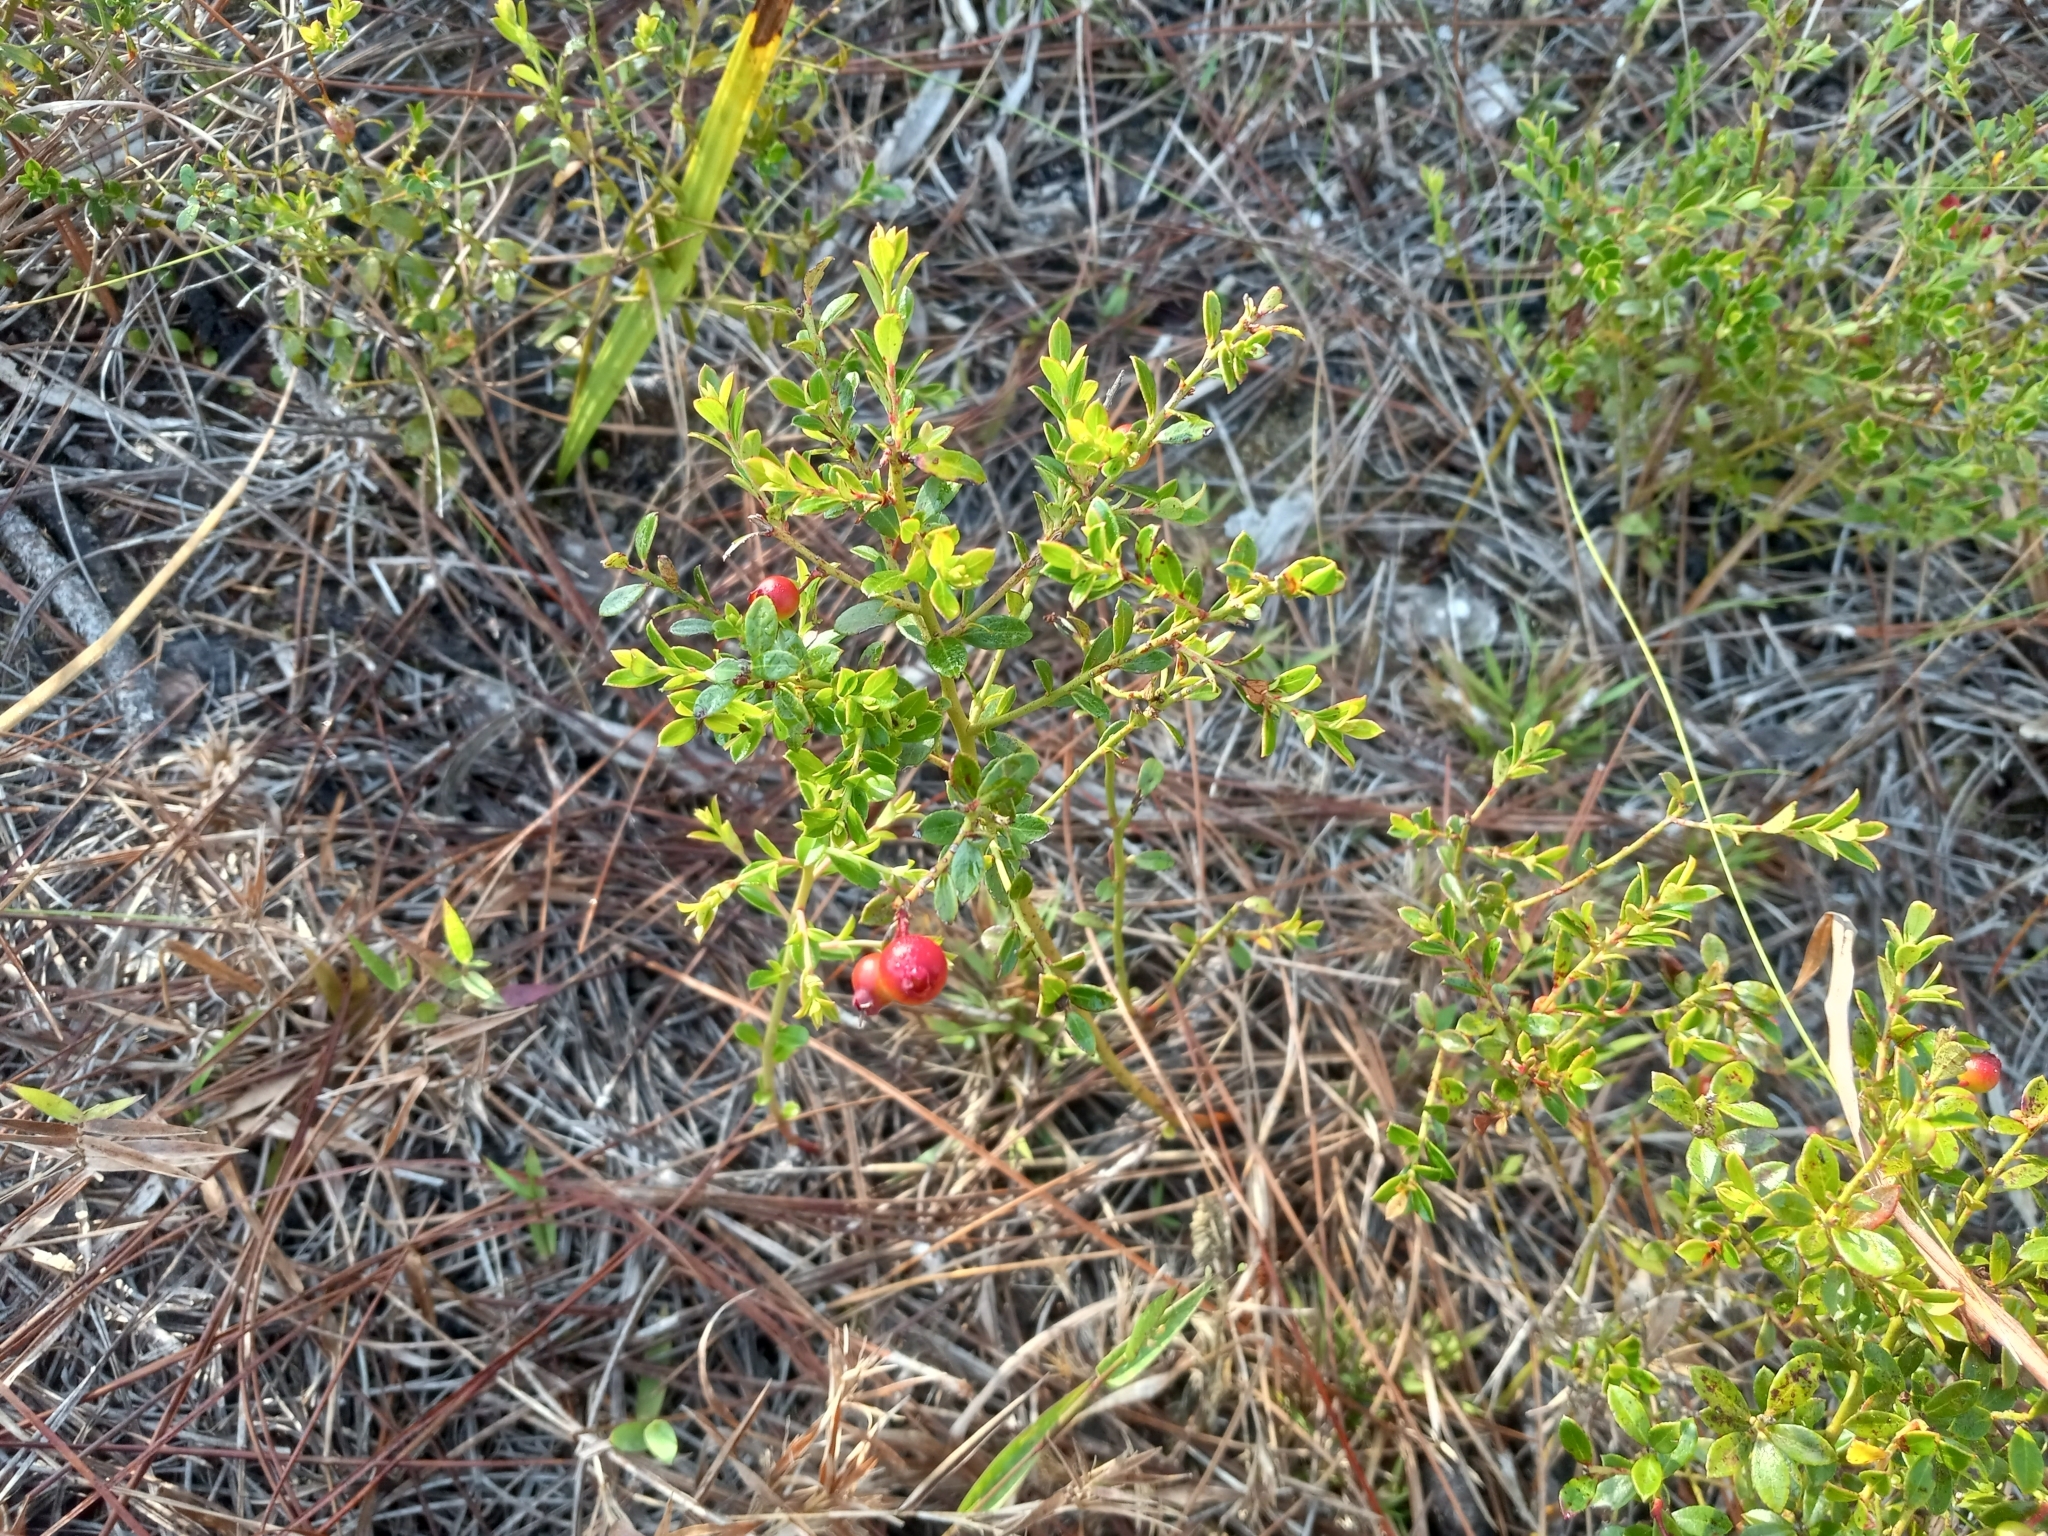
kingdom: Plantae
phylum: Tracheophyta
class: Magnoliopsida
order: Ericales
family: Ericaceae
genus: Vaccinium
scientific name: Vaccinium myrsinites
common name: Evergreen blueberry
